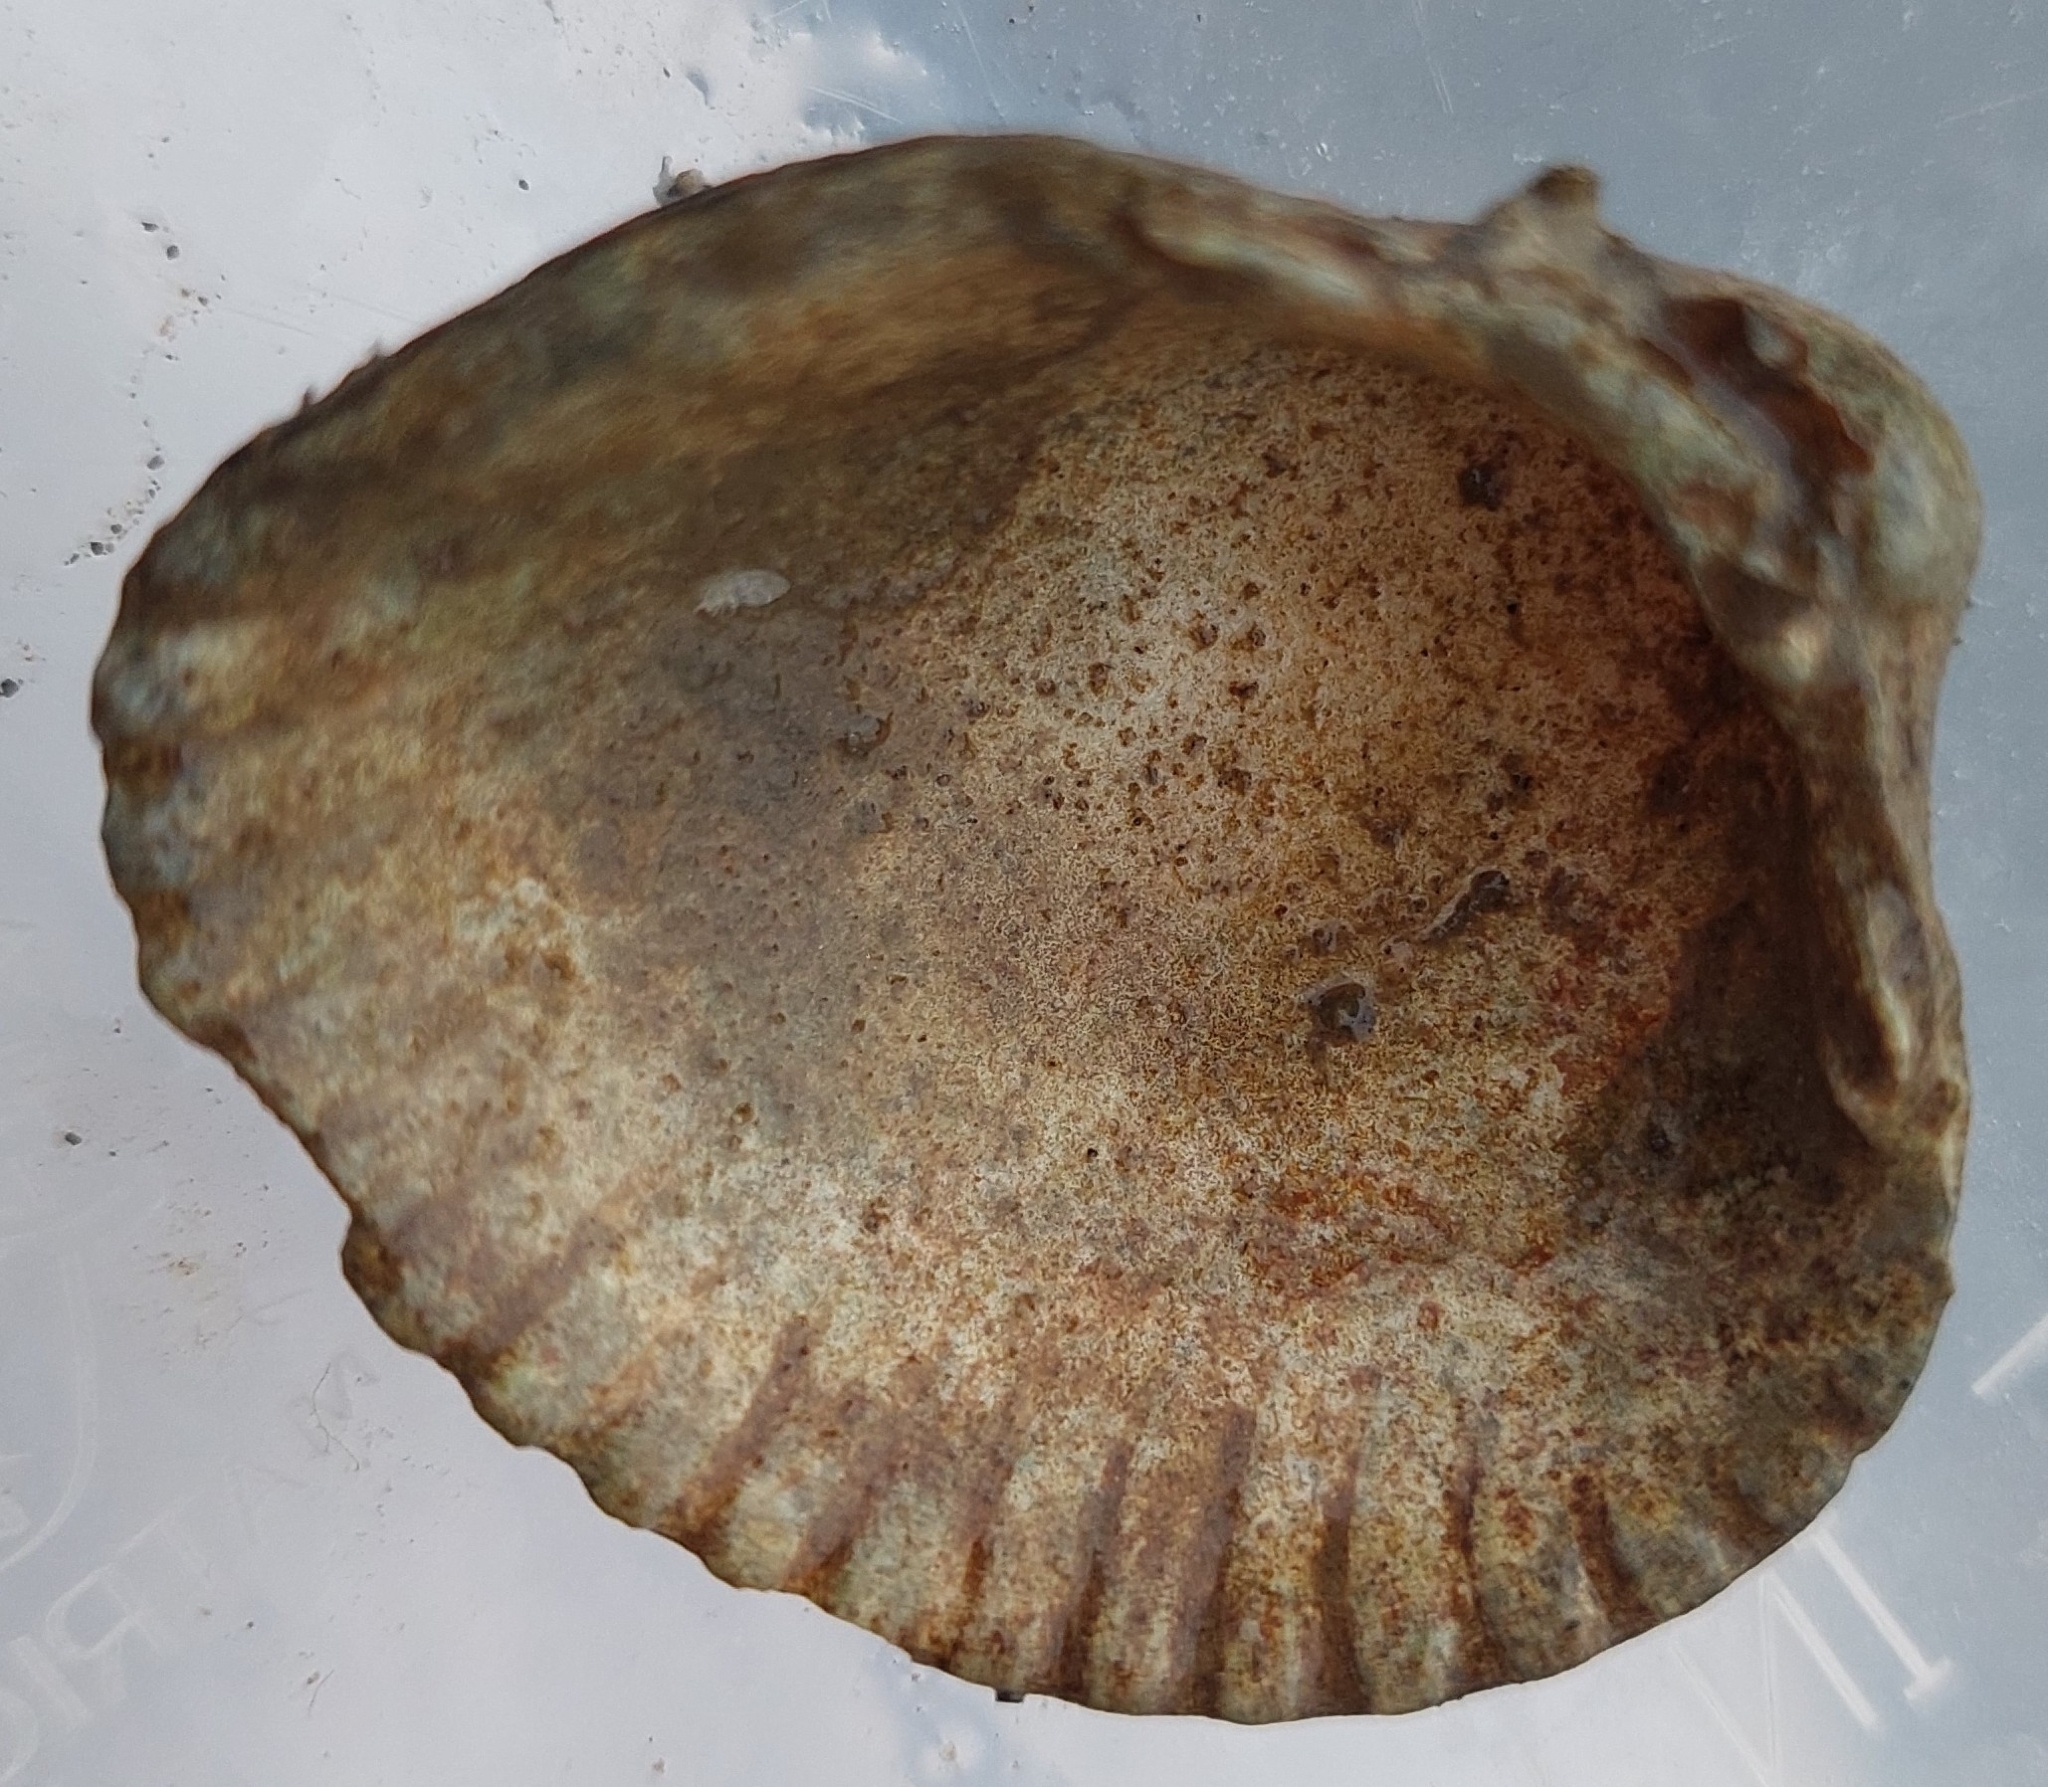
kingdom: Animalia
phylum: Mollusca
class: Bivalvia
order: Cardiida
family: Cardiidae
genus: Cerastoderma
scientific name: Cerastoderma edule
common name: Common cockle
